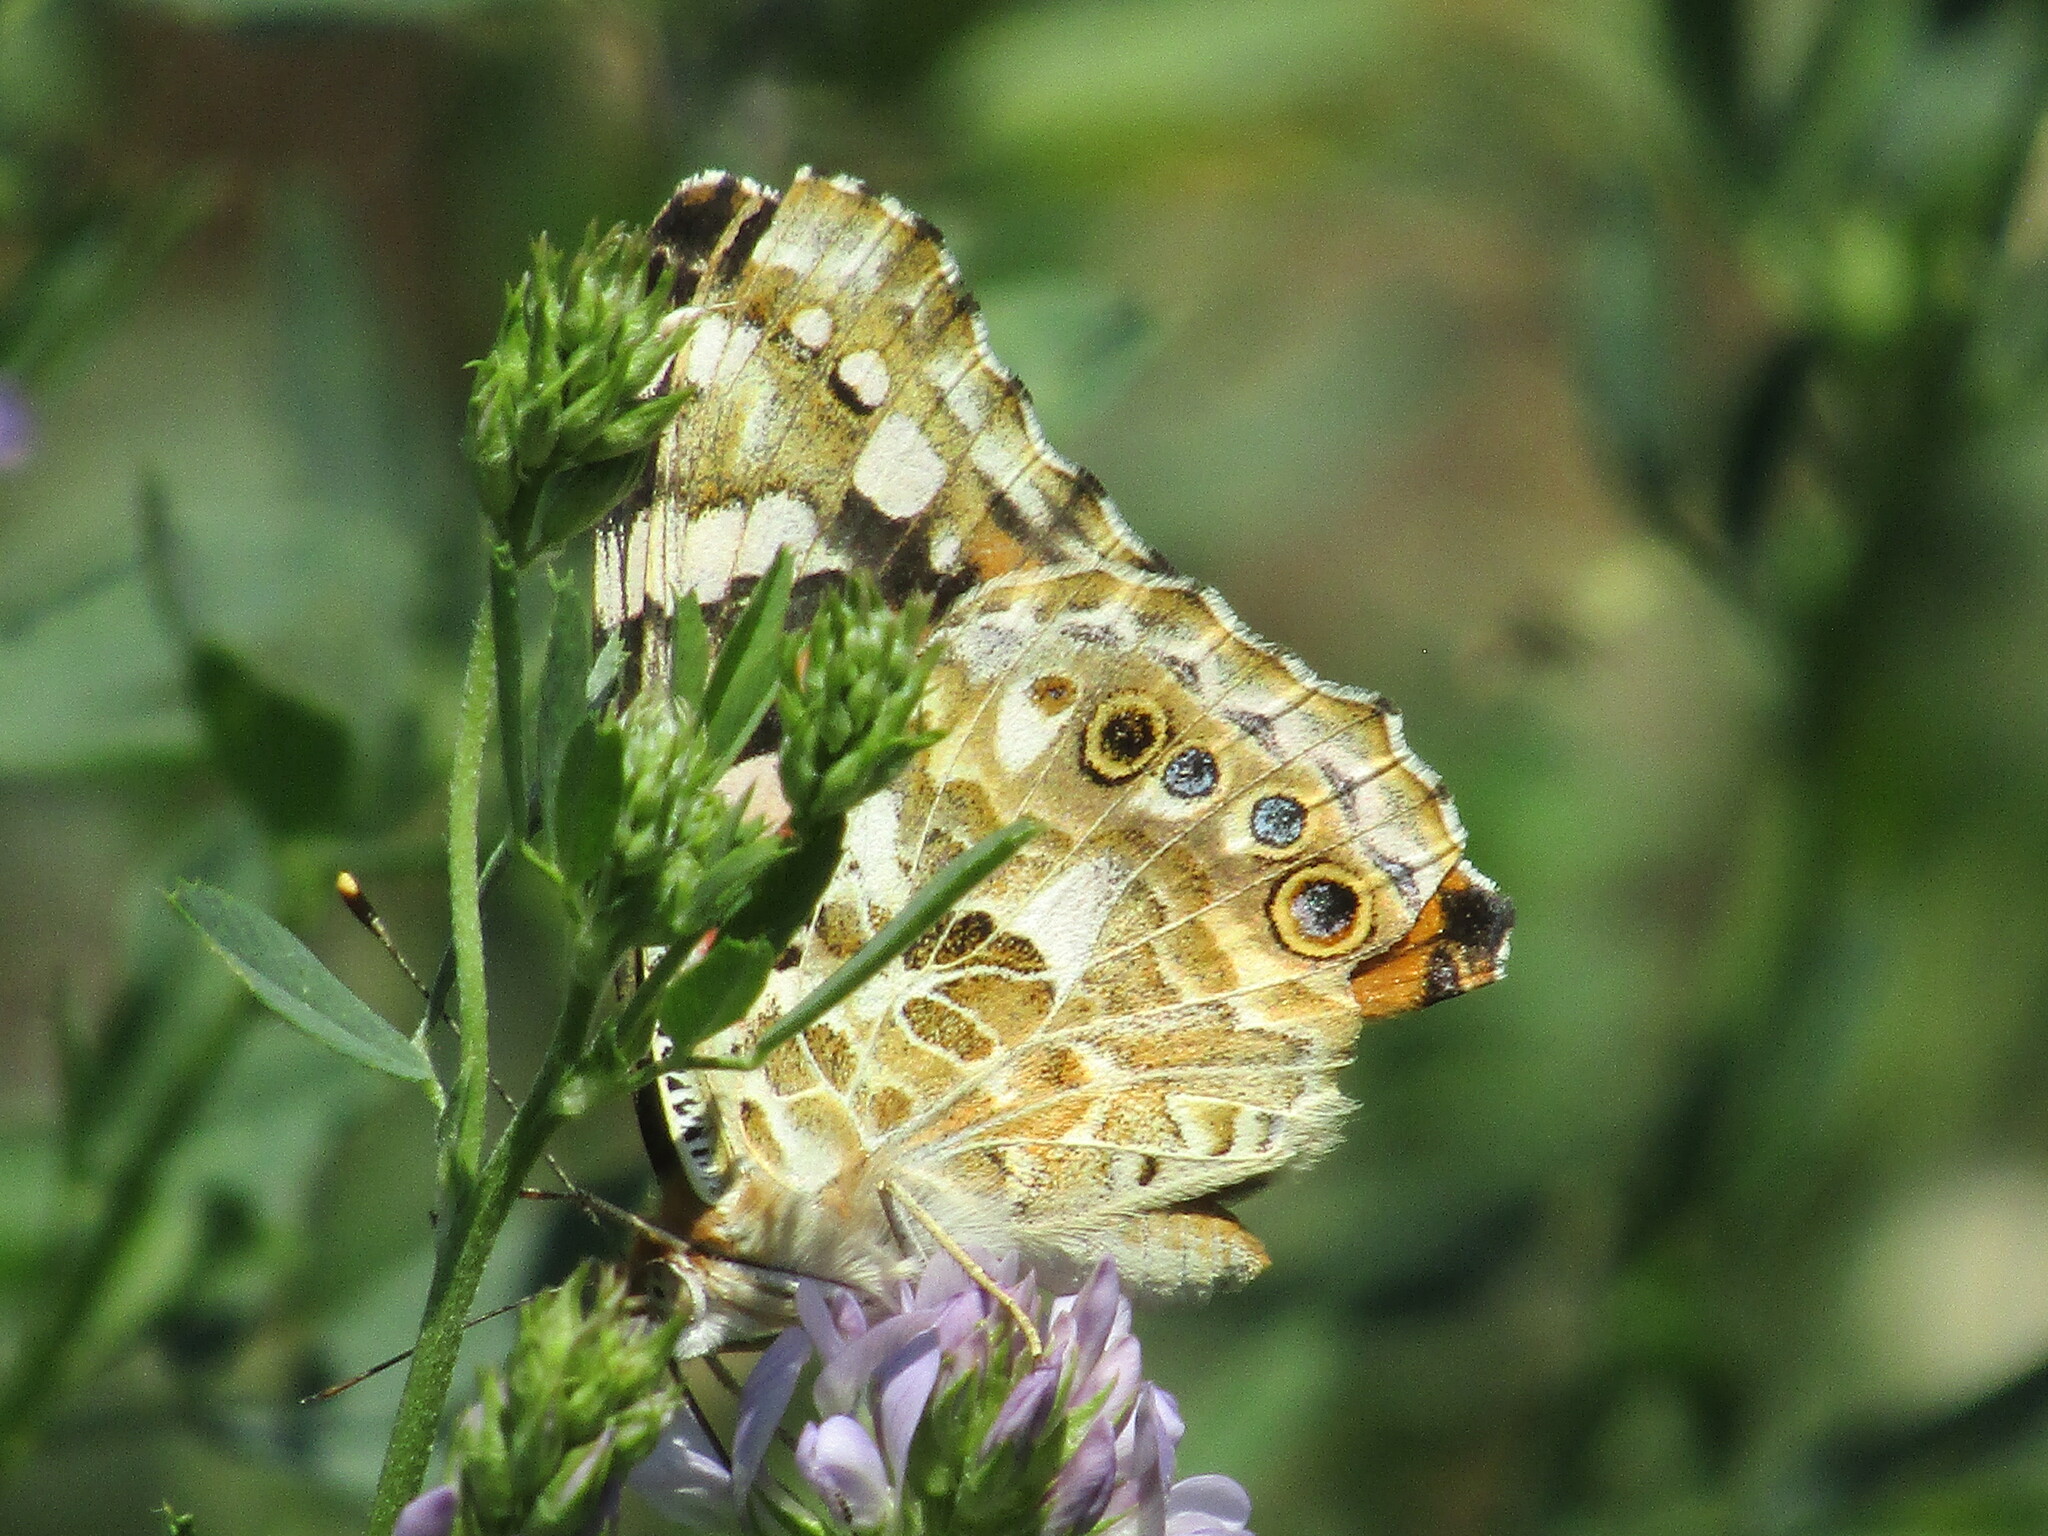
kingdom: Animalia
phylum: Arthropoda
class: Insecta
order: Lepidoptera
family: Nymphalidae
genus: Vanessa
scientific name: Vanessa cardui
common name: Painted lady
